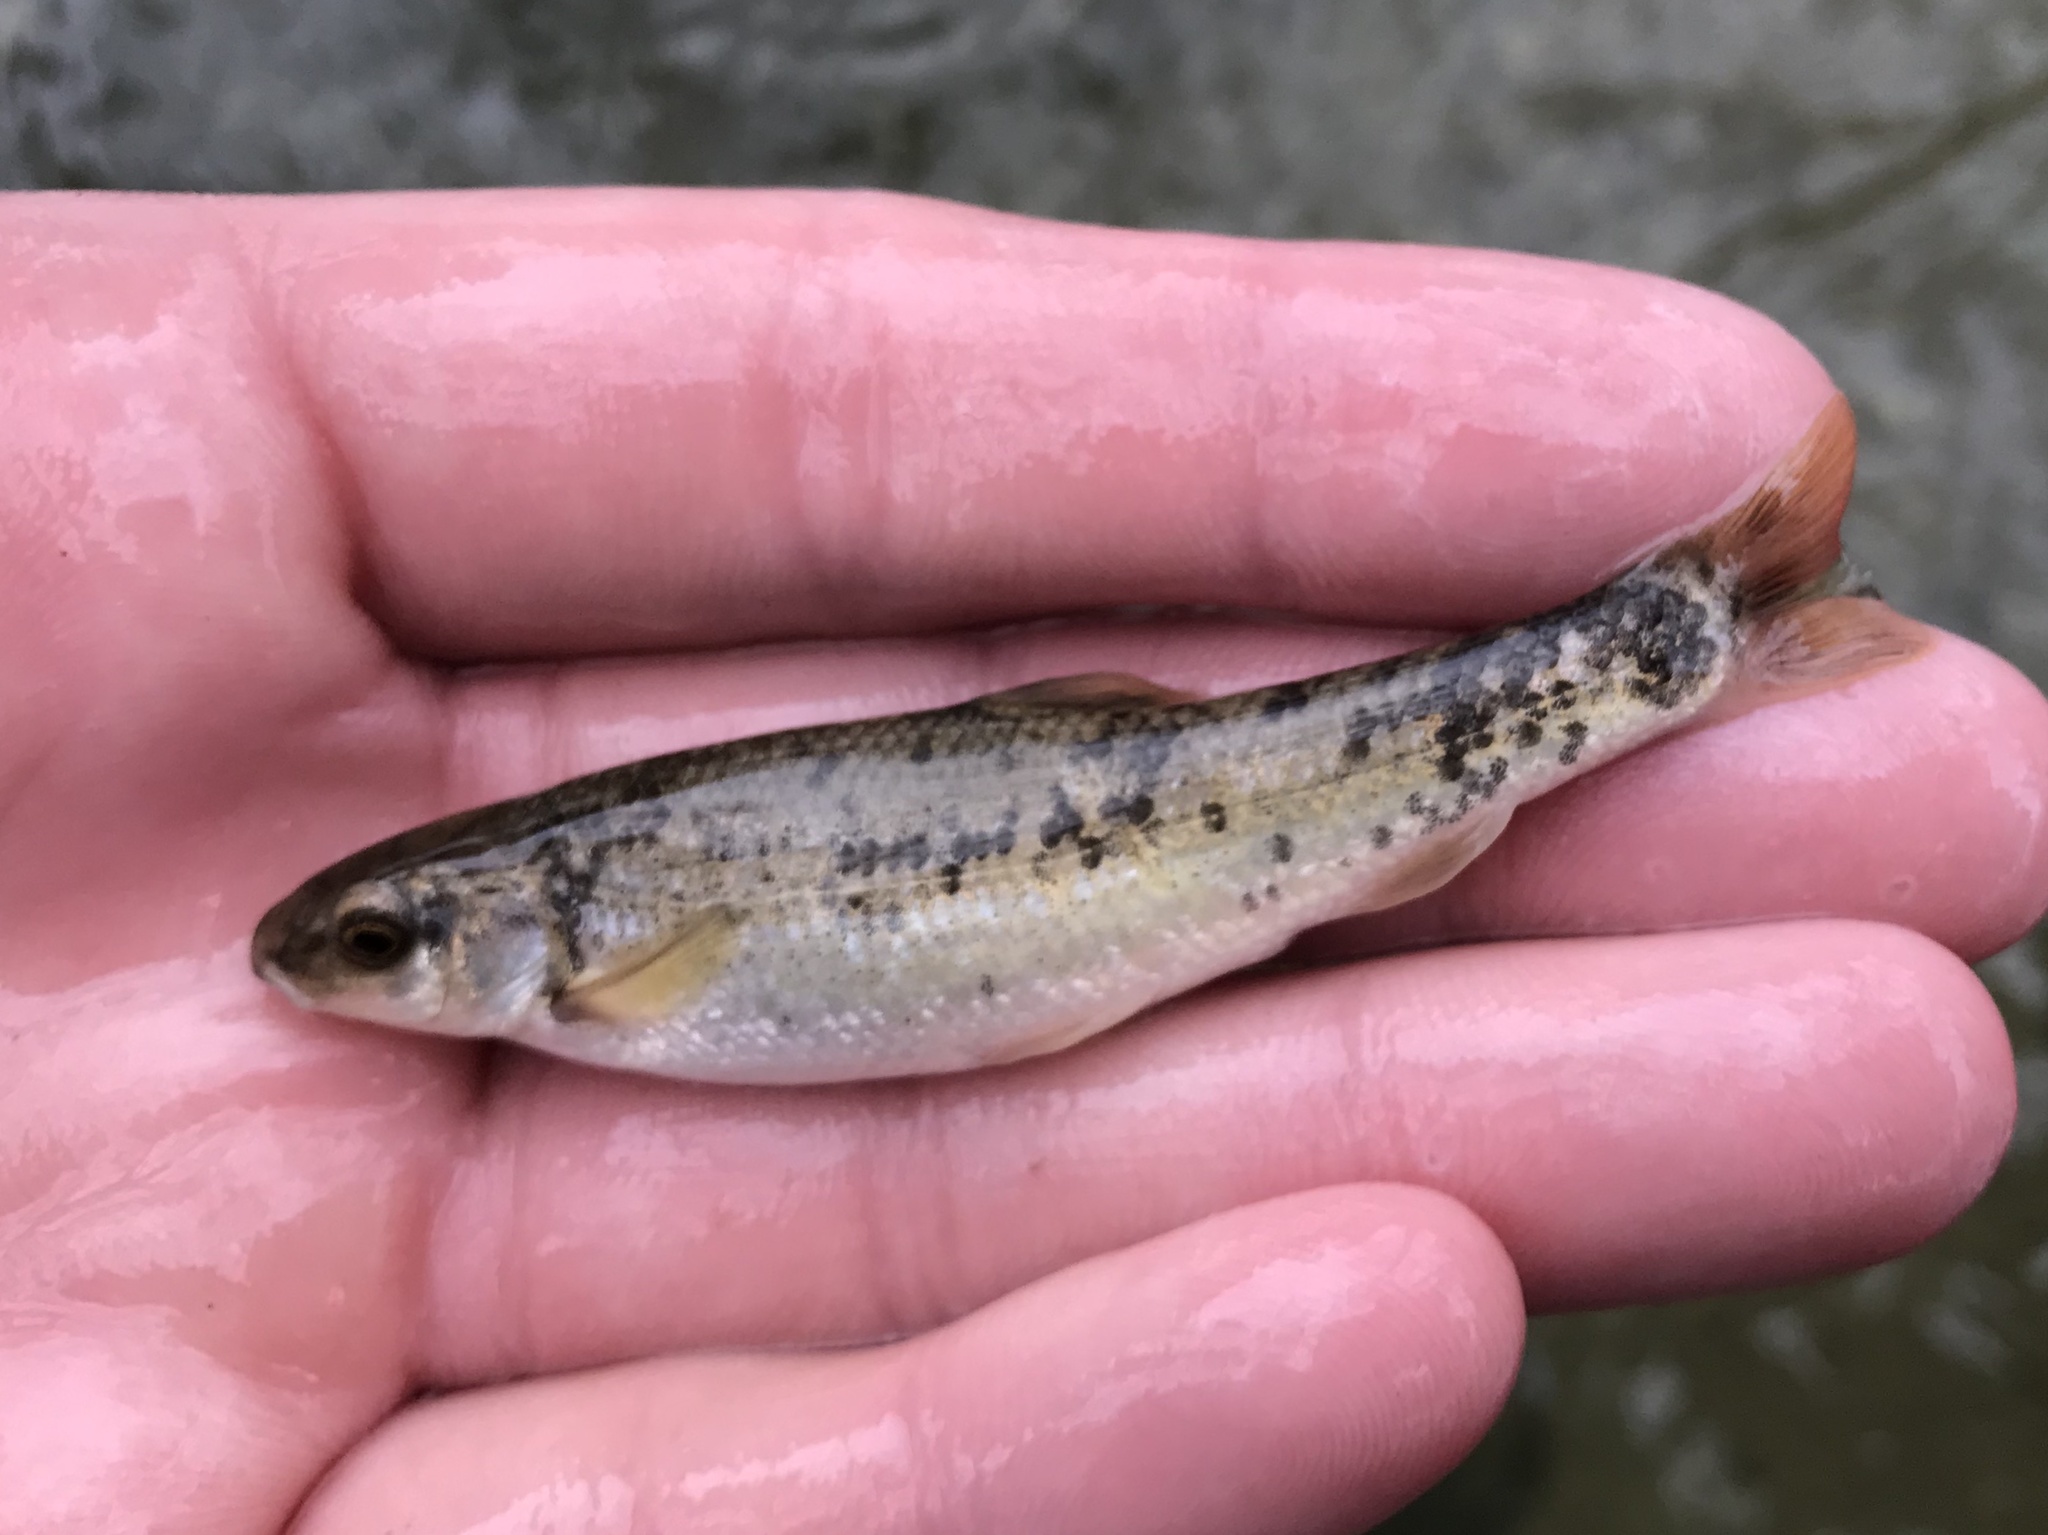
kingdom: Animalia
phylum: Chordata
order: Cypriniformes
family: Cyprinidae
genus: Campostoma
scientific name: Campostoma anomalum
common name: Central stoneroller
